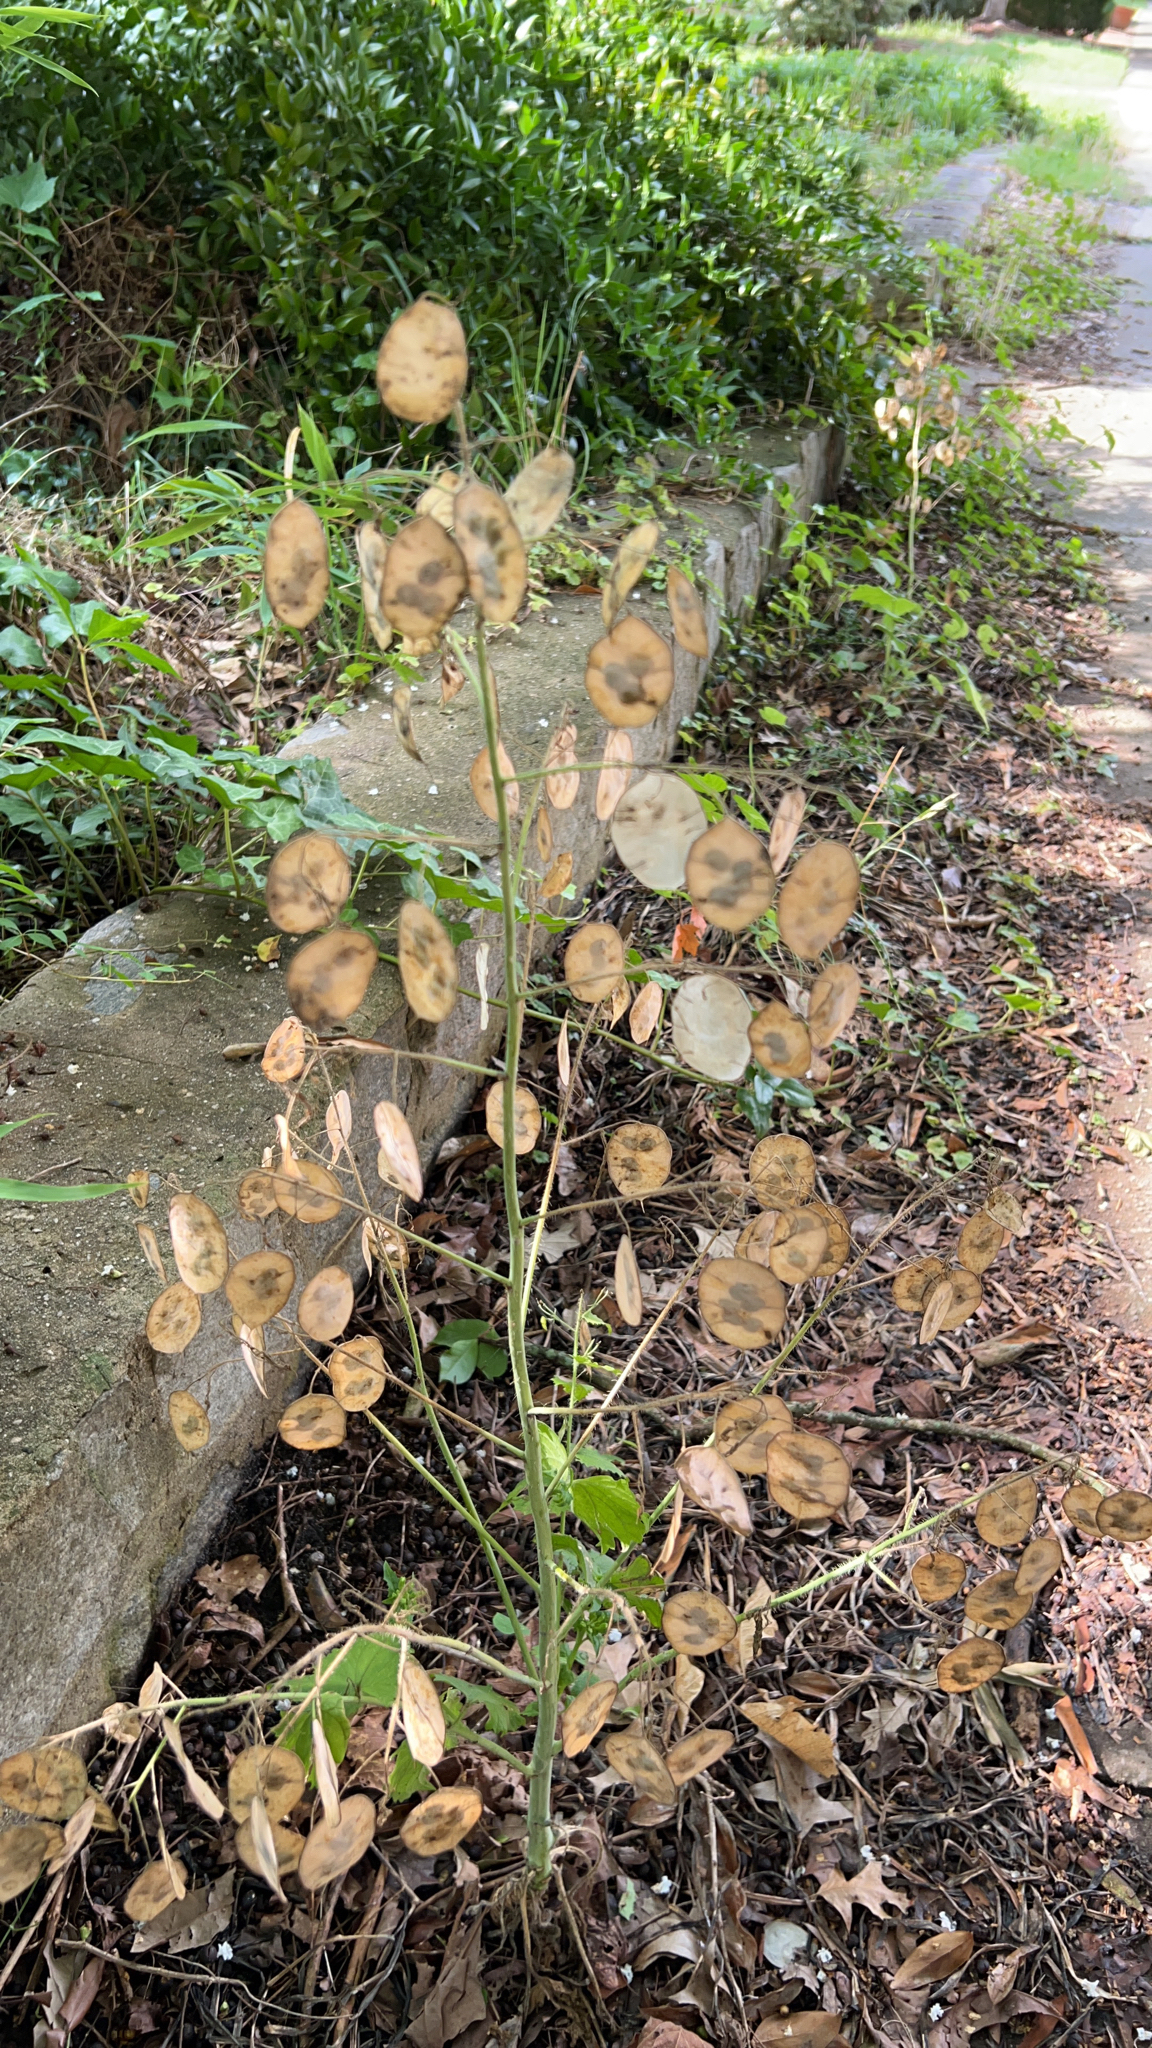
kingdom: Plantae
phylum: Tracheophyta
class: Magnoliopsida
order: Brassicales
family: Brassicaceae
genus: Lunaria
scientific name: Lunaria annua
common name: Honesty
